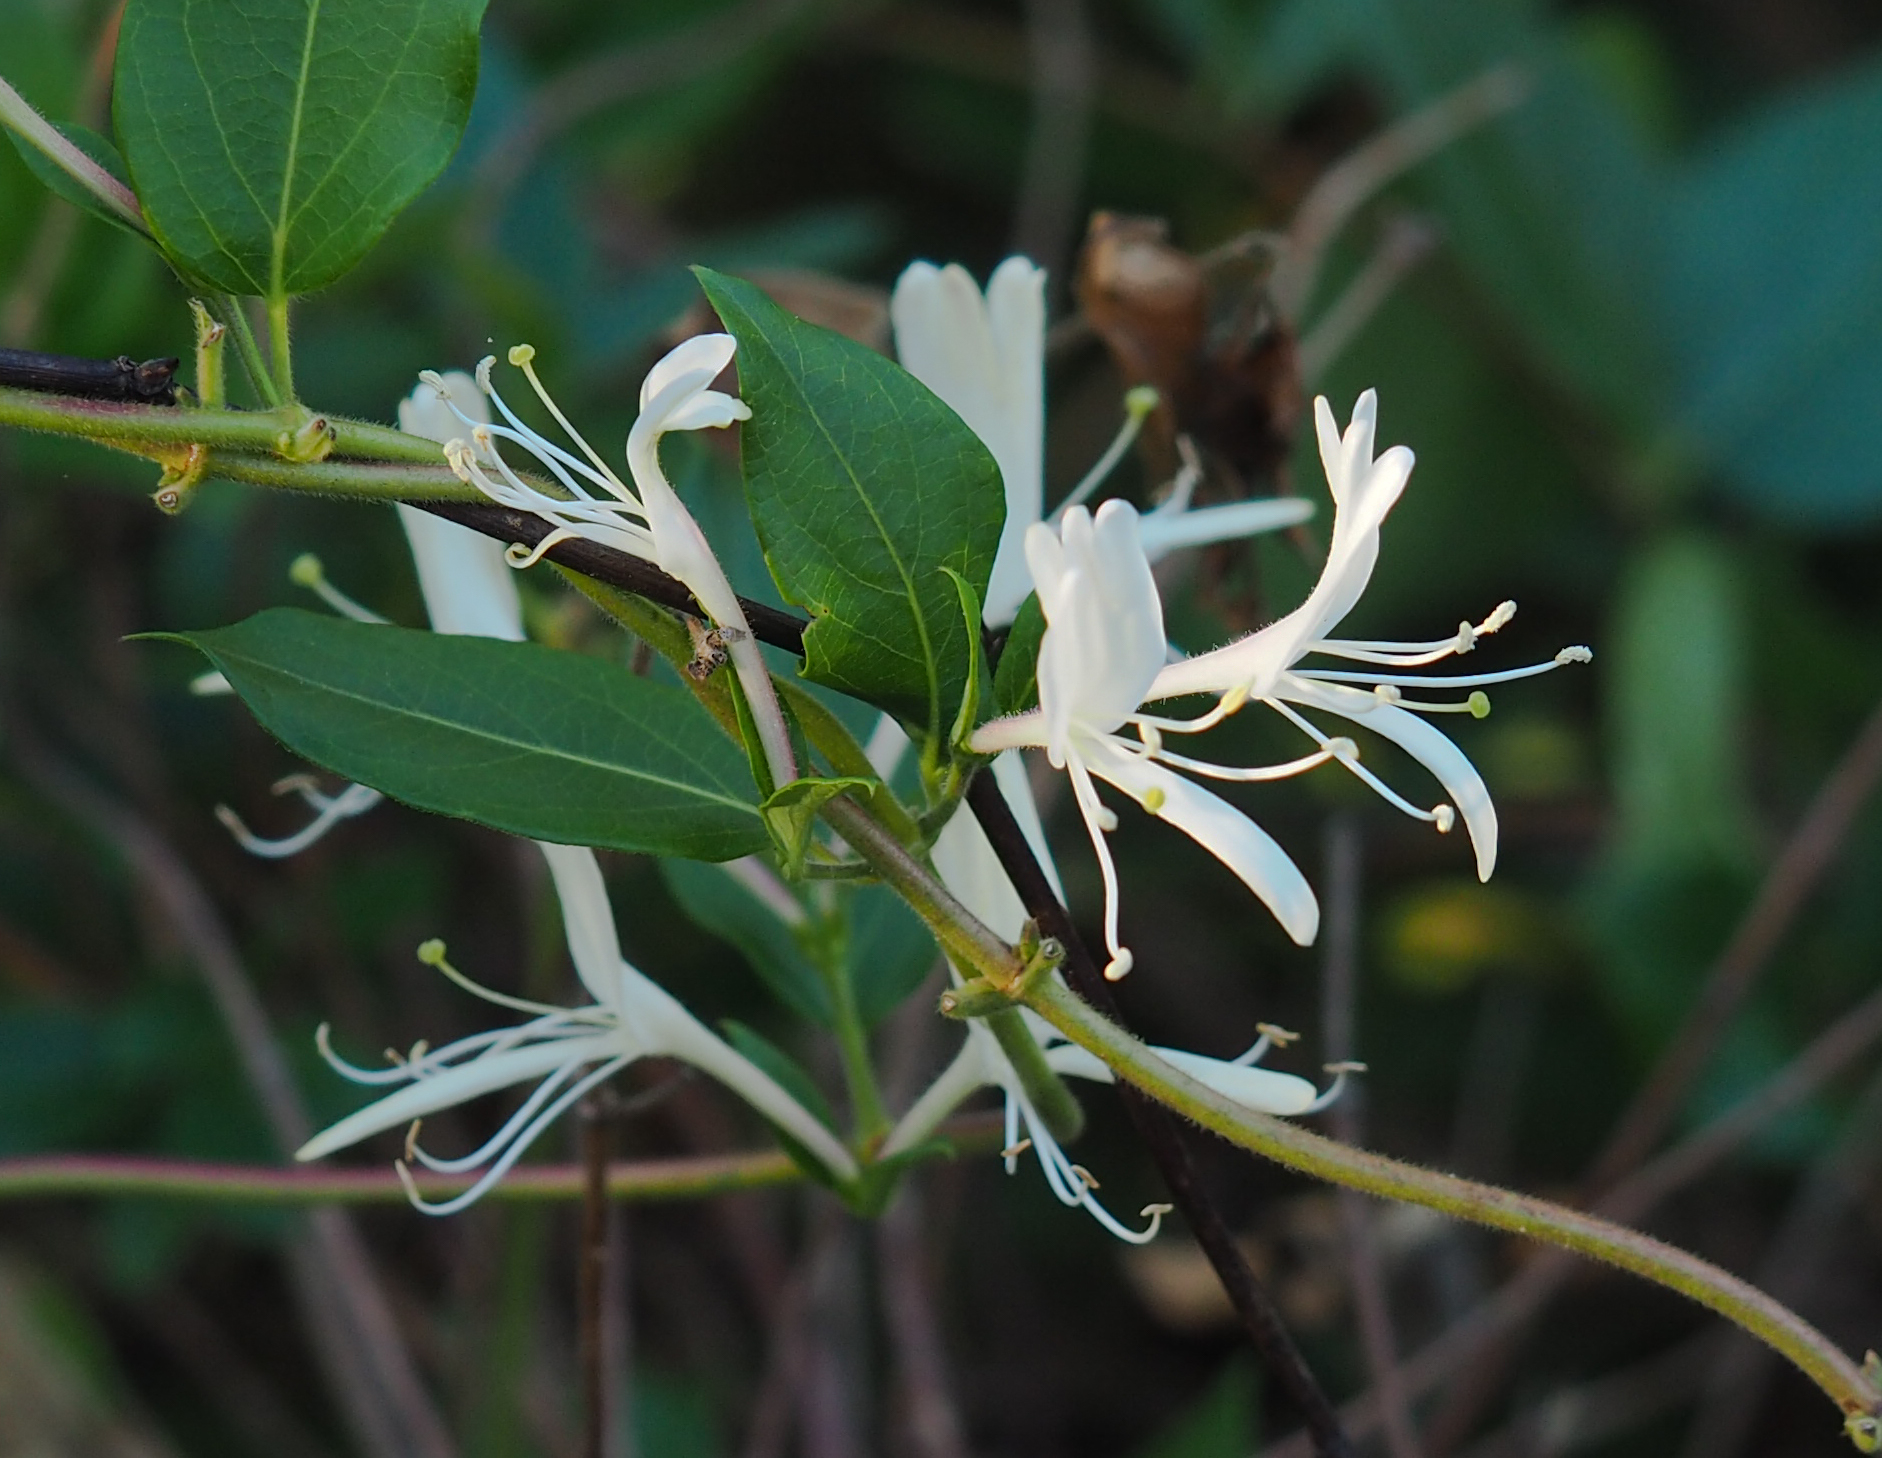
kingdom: Plantae
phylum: Tracheophyta
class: Magnoliopsida
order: Dipsacales
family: Caprifoliaceae
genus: Lonicera
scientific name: Lonicera japonica
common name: Japanese honeysuckle
